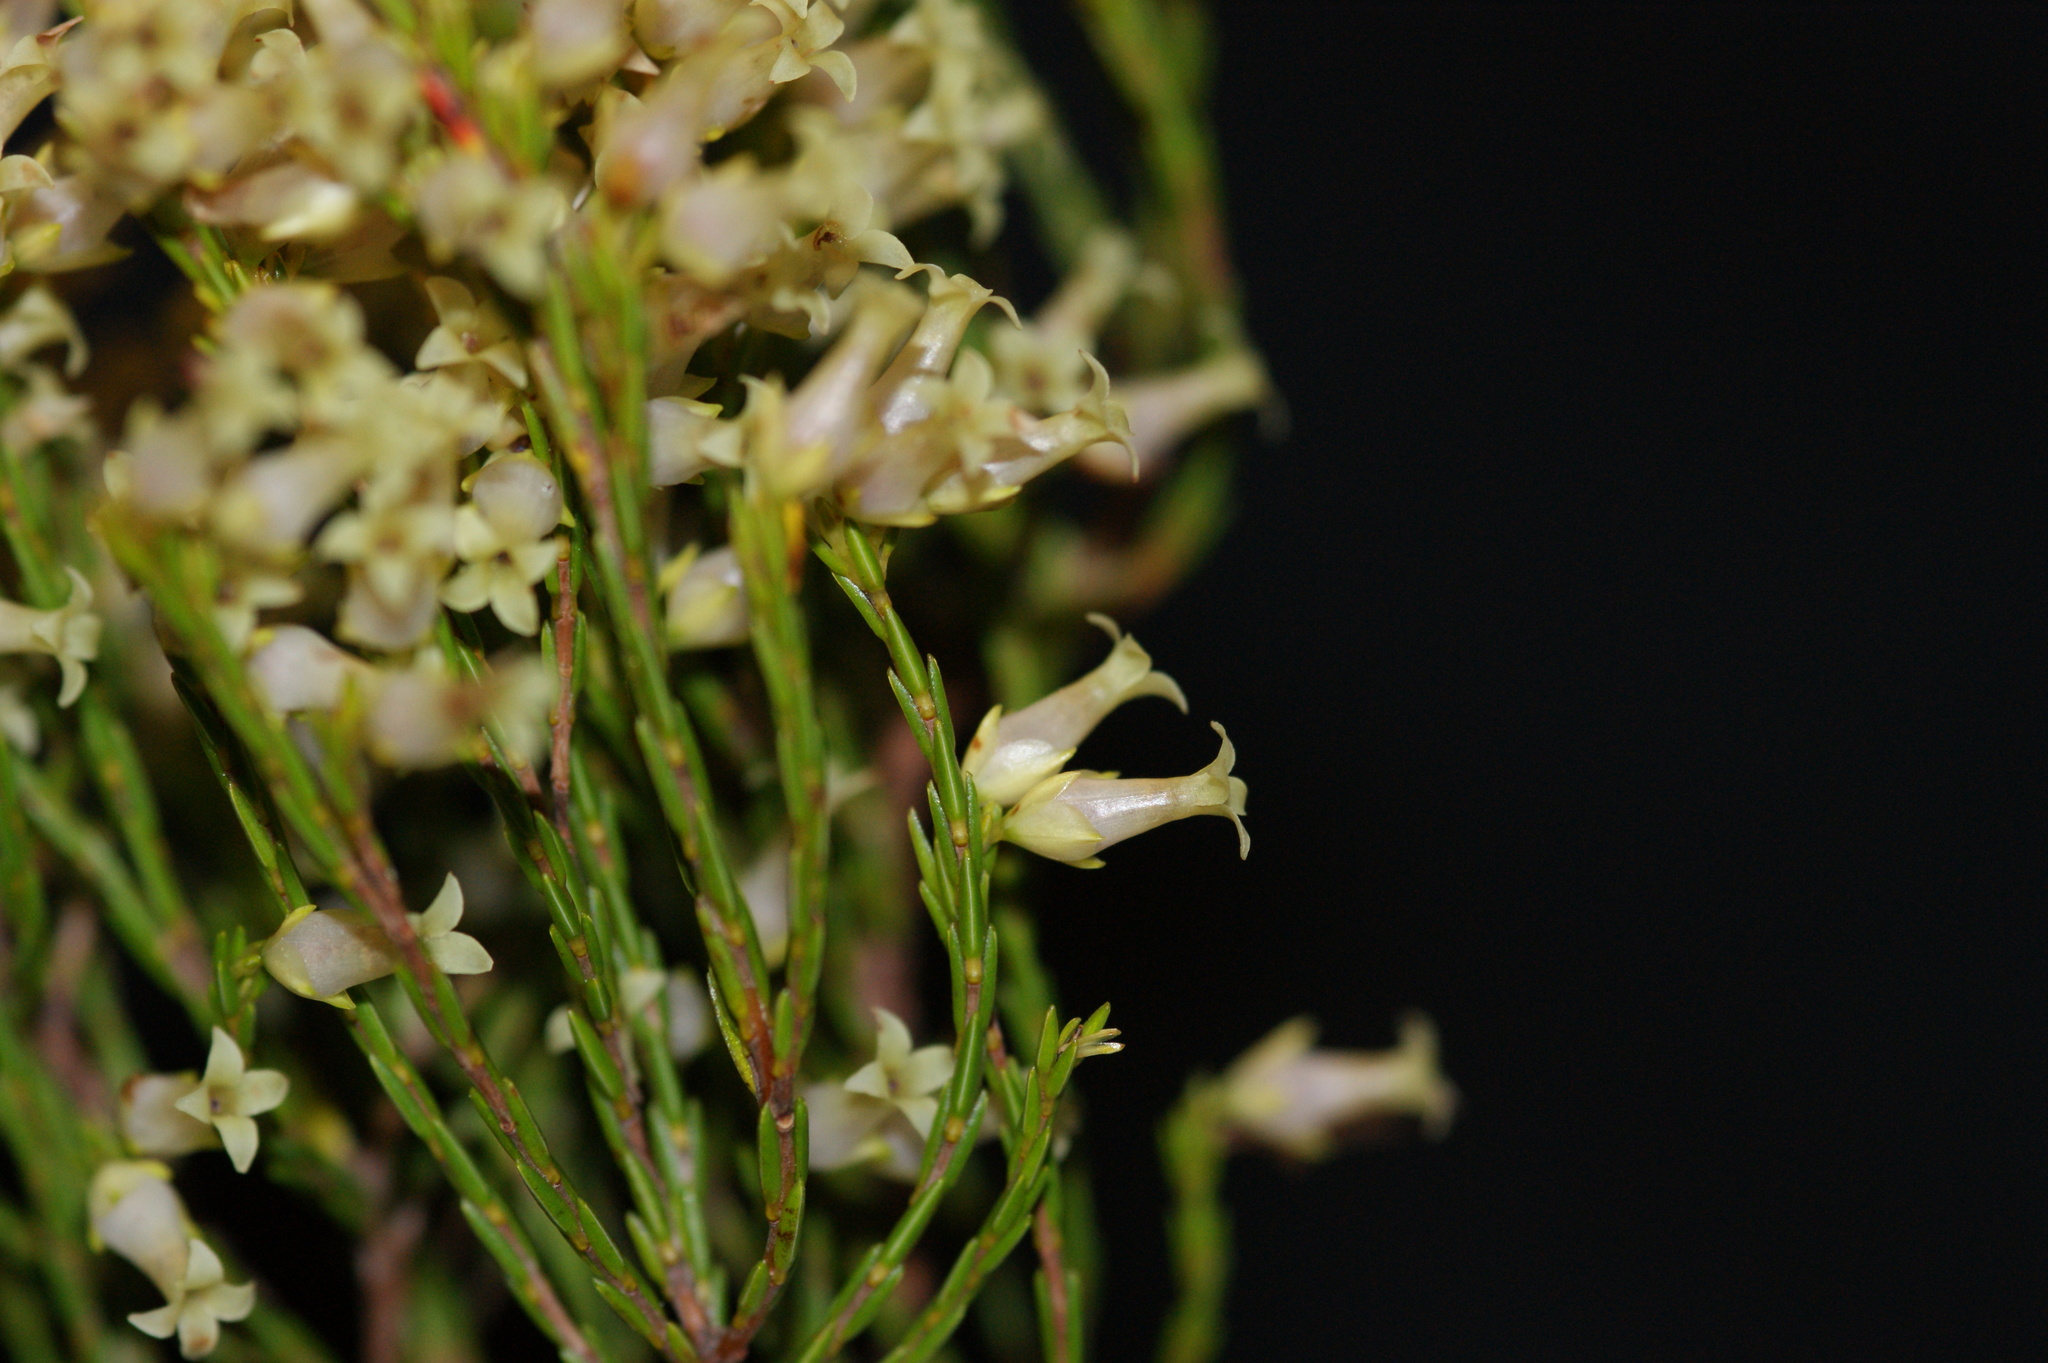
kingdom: Plantae
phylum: Tracheophyta
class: Magnoliopsida
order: Ericales
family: Ericaceae
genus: Erica
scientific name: Erica lutea
